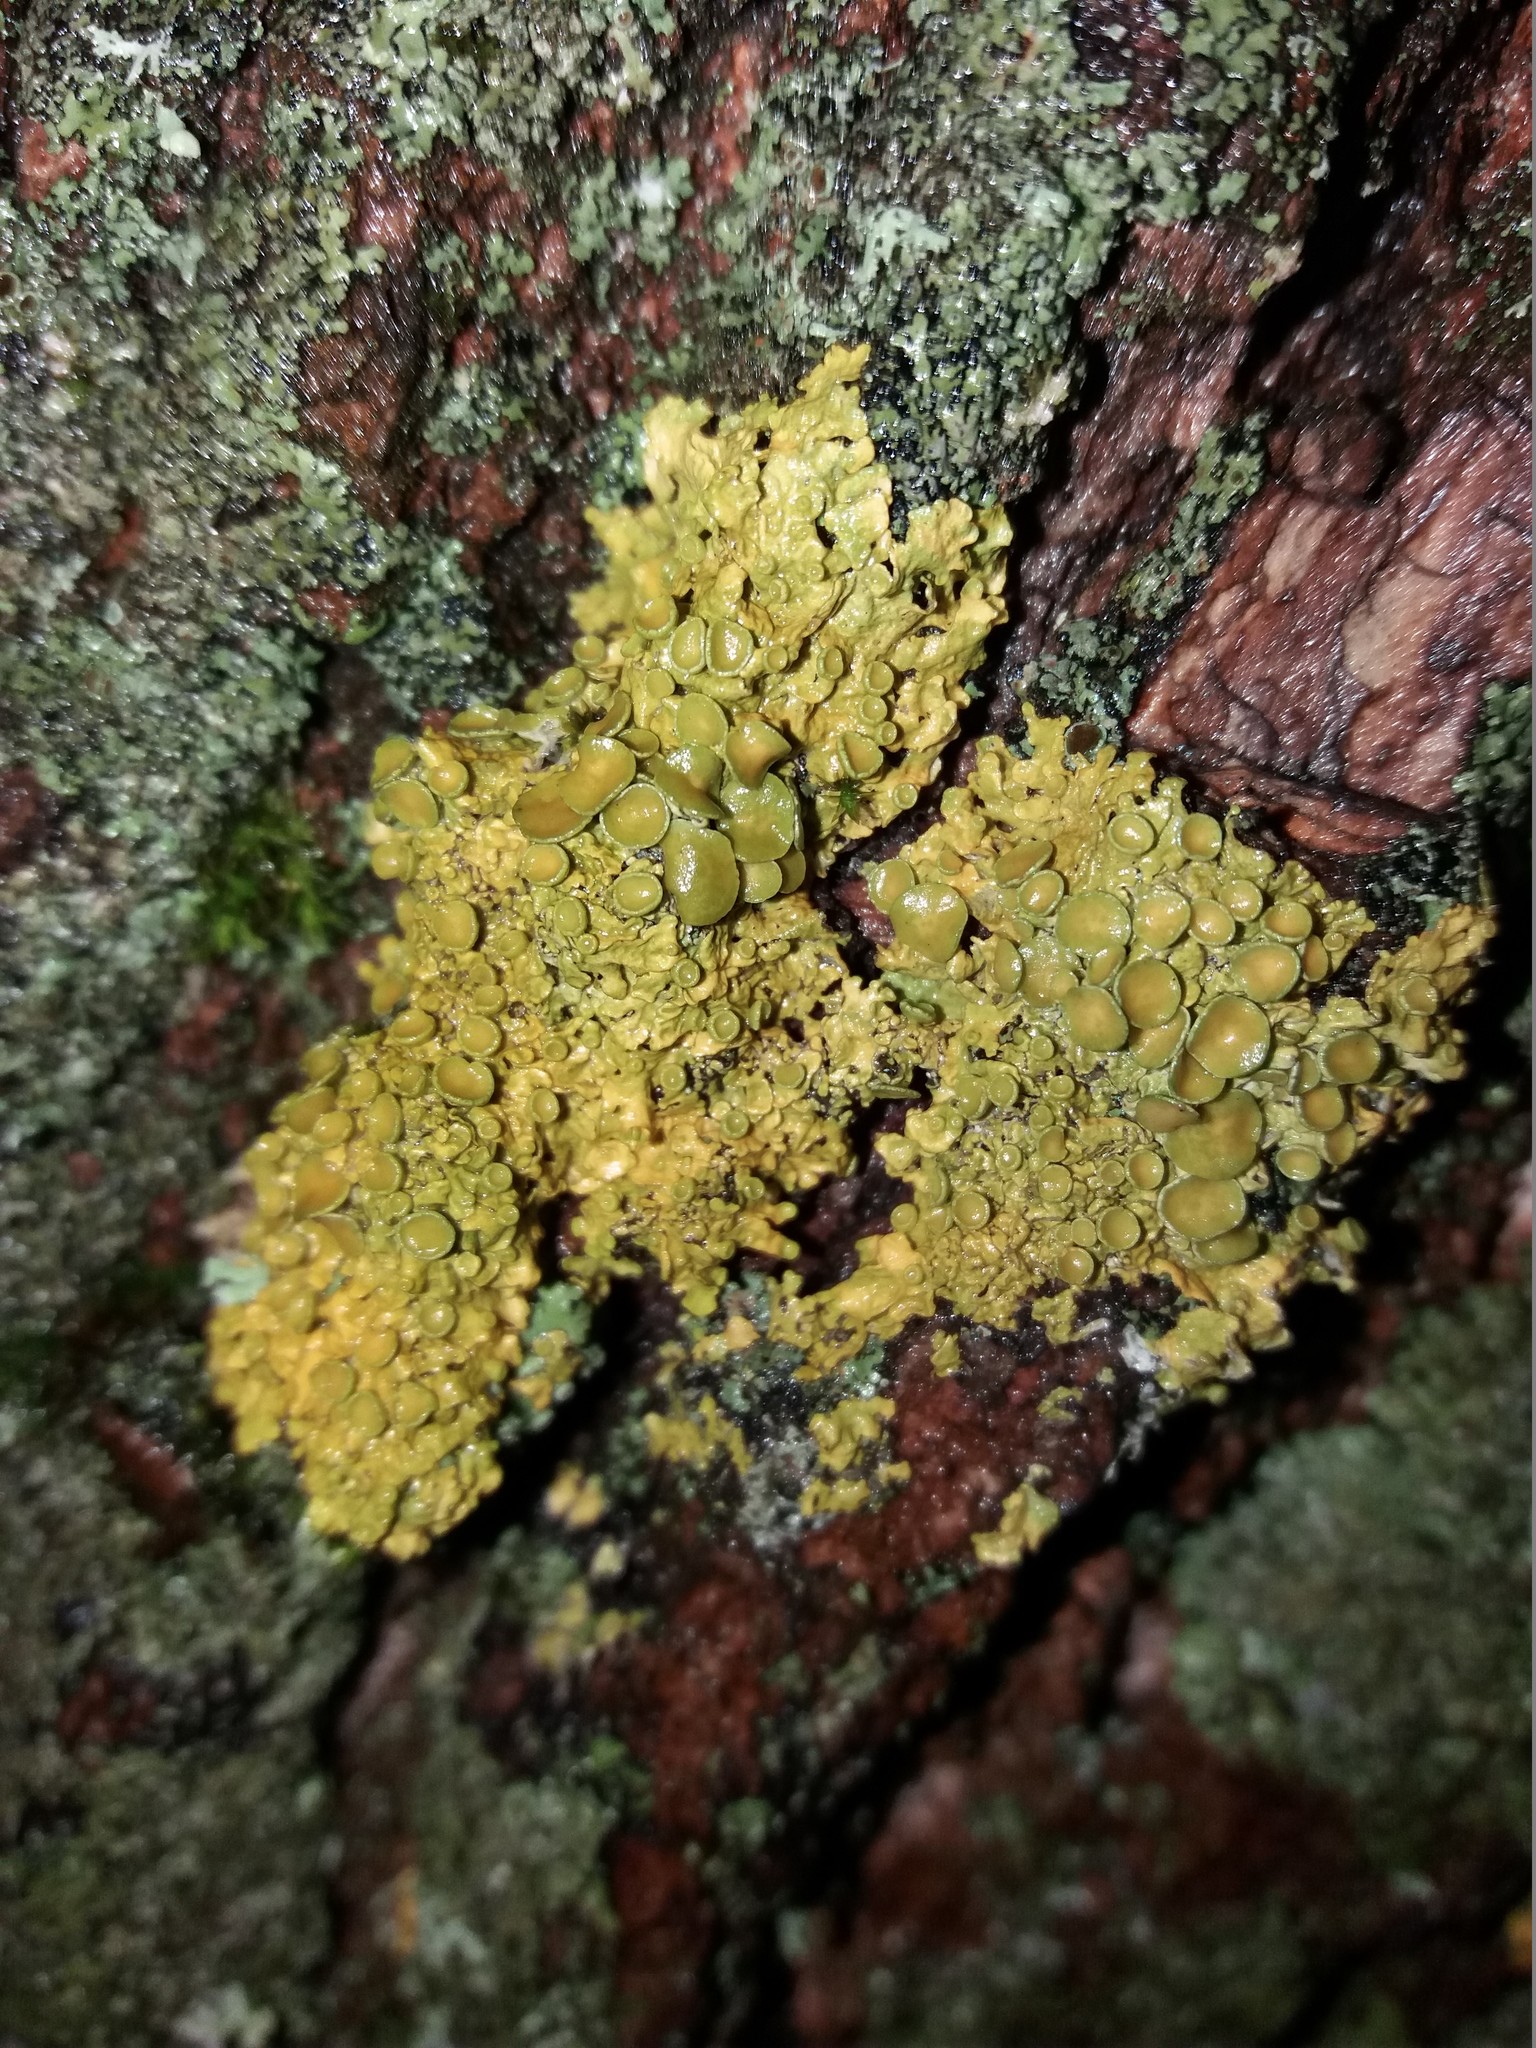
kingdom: Fungi
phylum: Ascomycota
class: Lecanoromycetes
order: Teloschistales
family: Teloschistaceae
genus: Xanthoria
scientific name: Xanthoria parietina
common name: Common orange lichen
